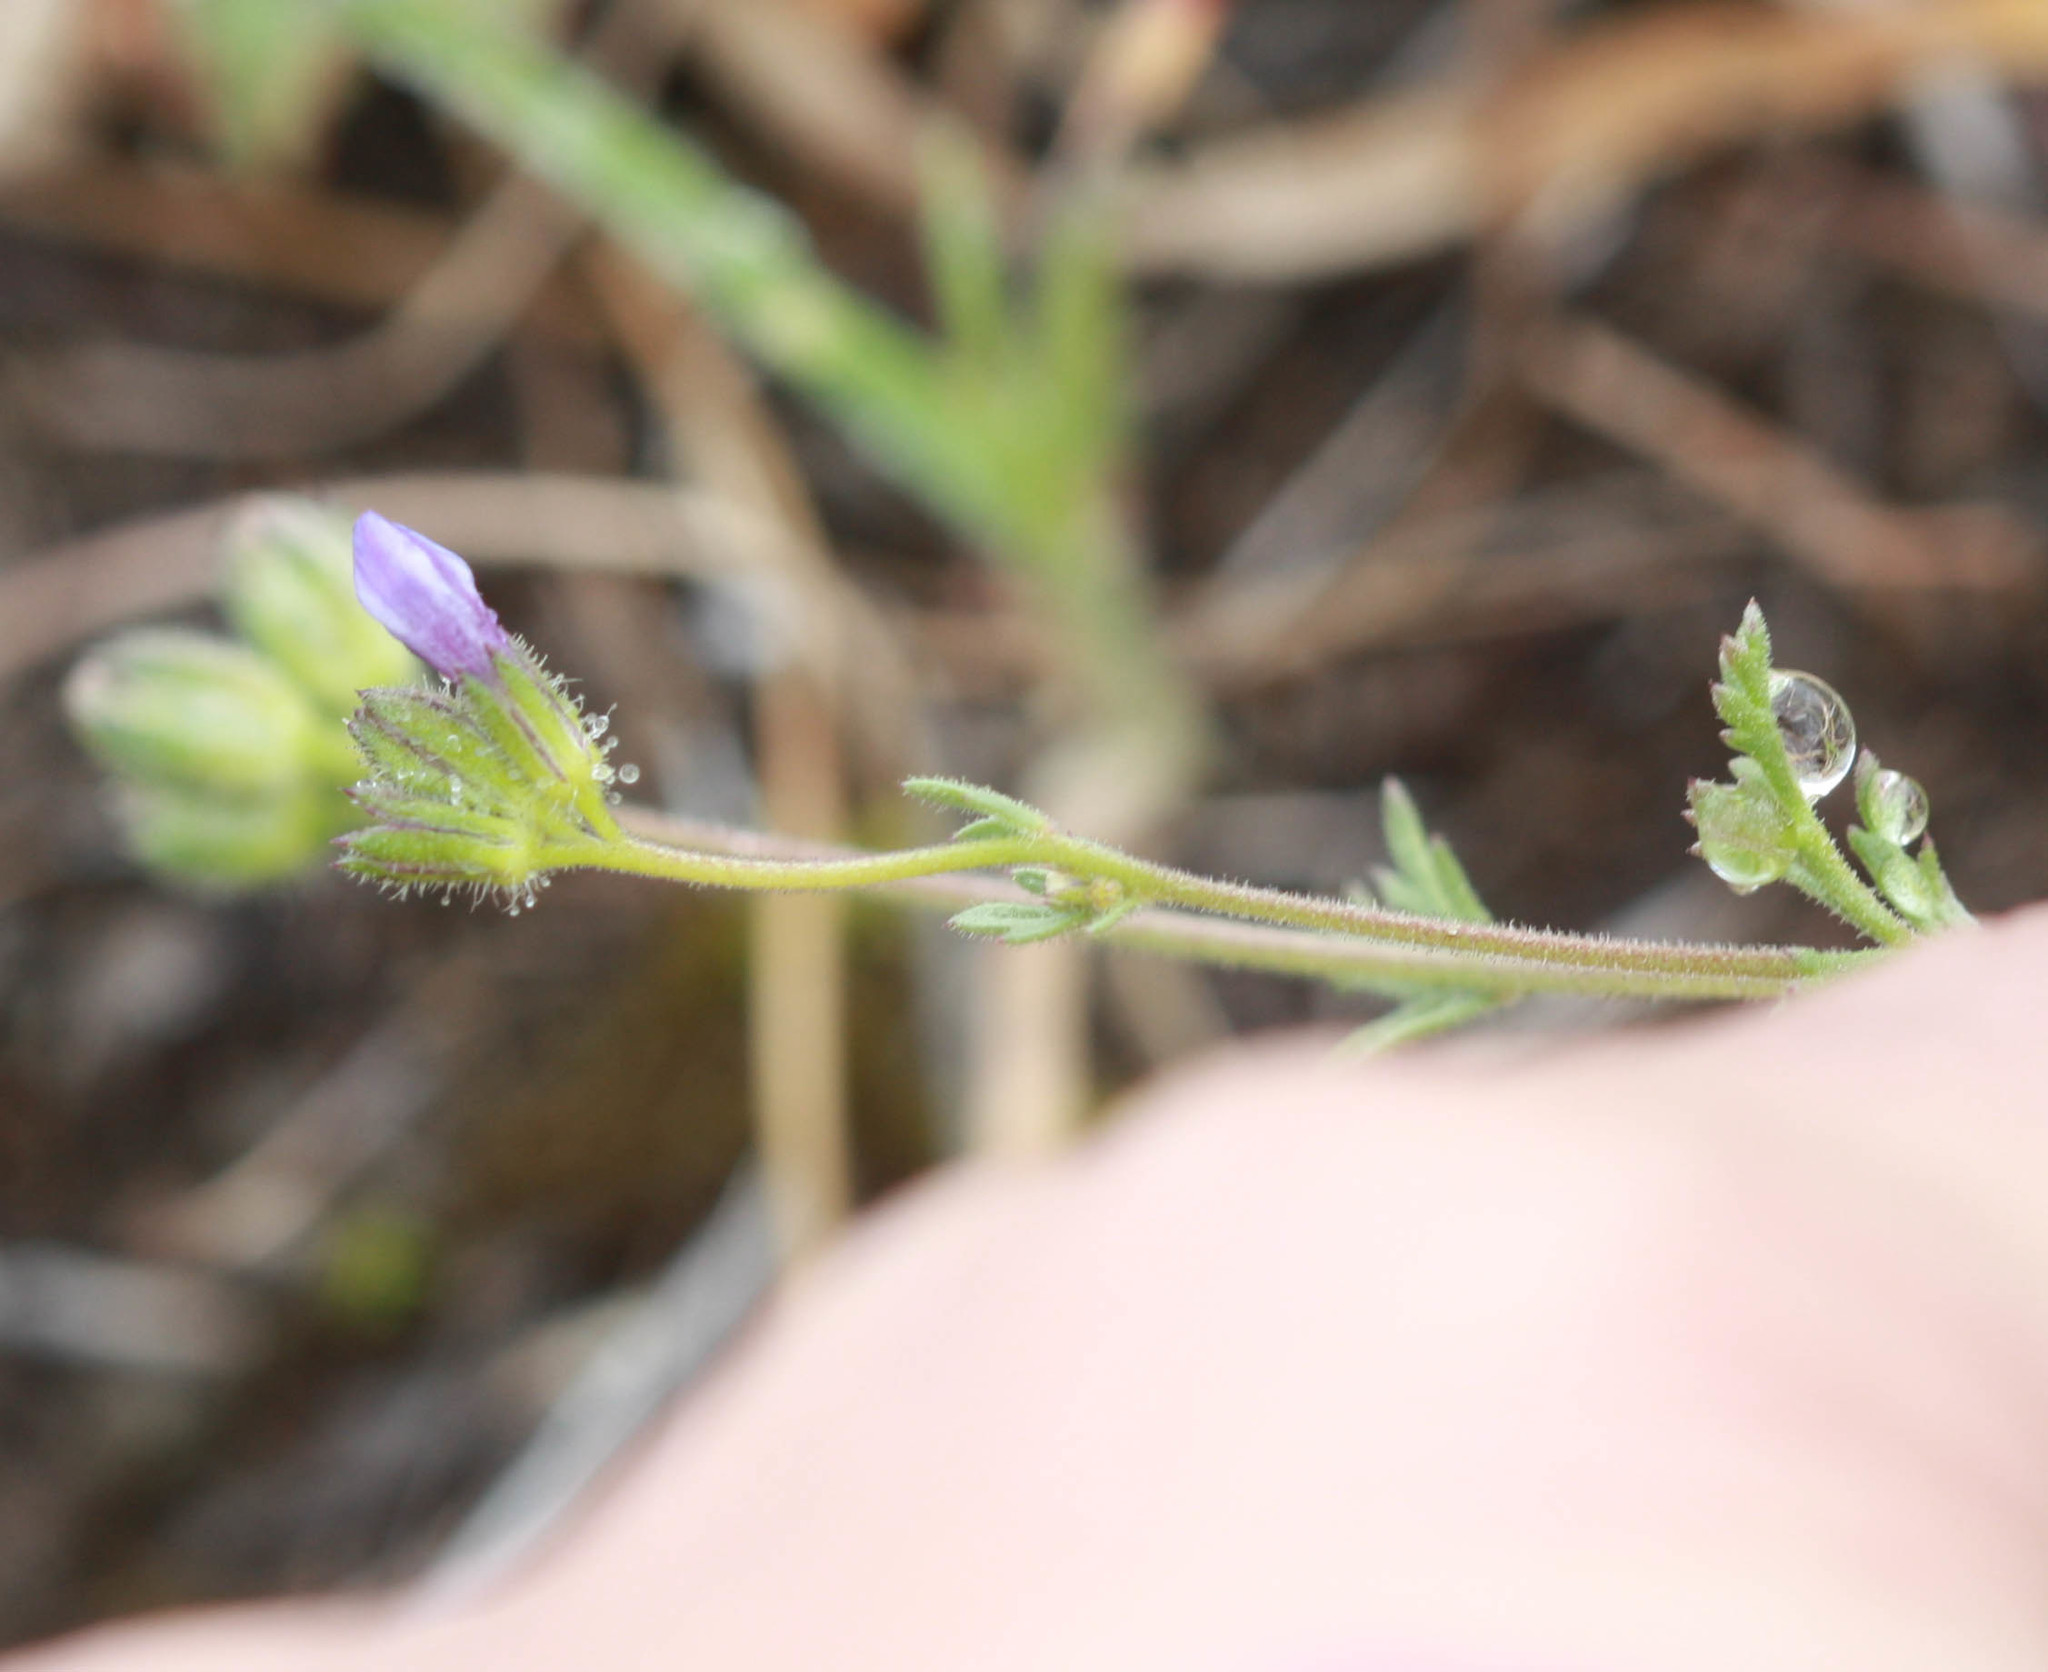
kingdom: Plantae
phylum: Tracheophyta
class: Magnoliopsida
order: Ericales
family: Polemoniaceae
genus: Gilia
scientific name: Gilia achilleifolia
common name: California gily-flower
